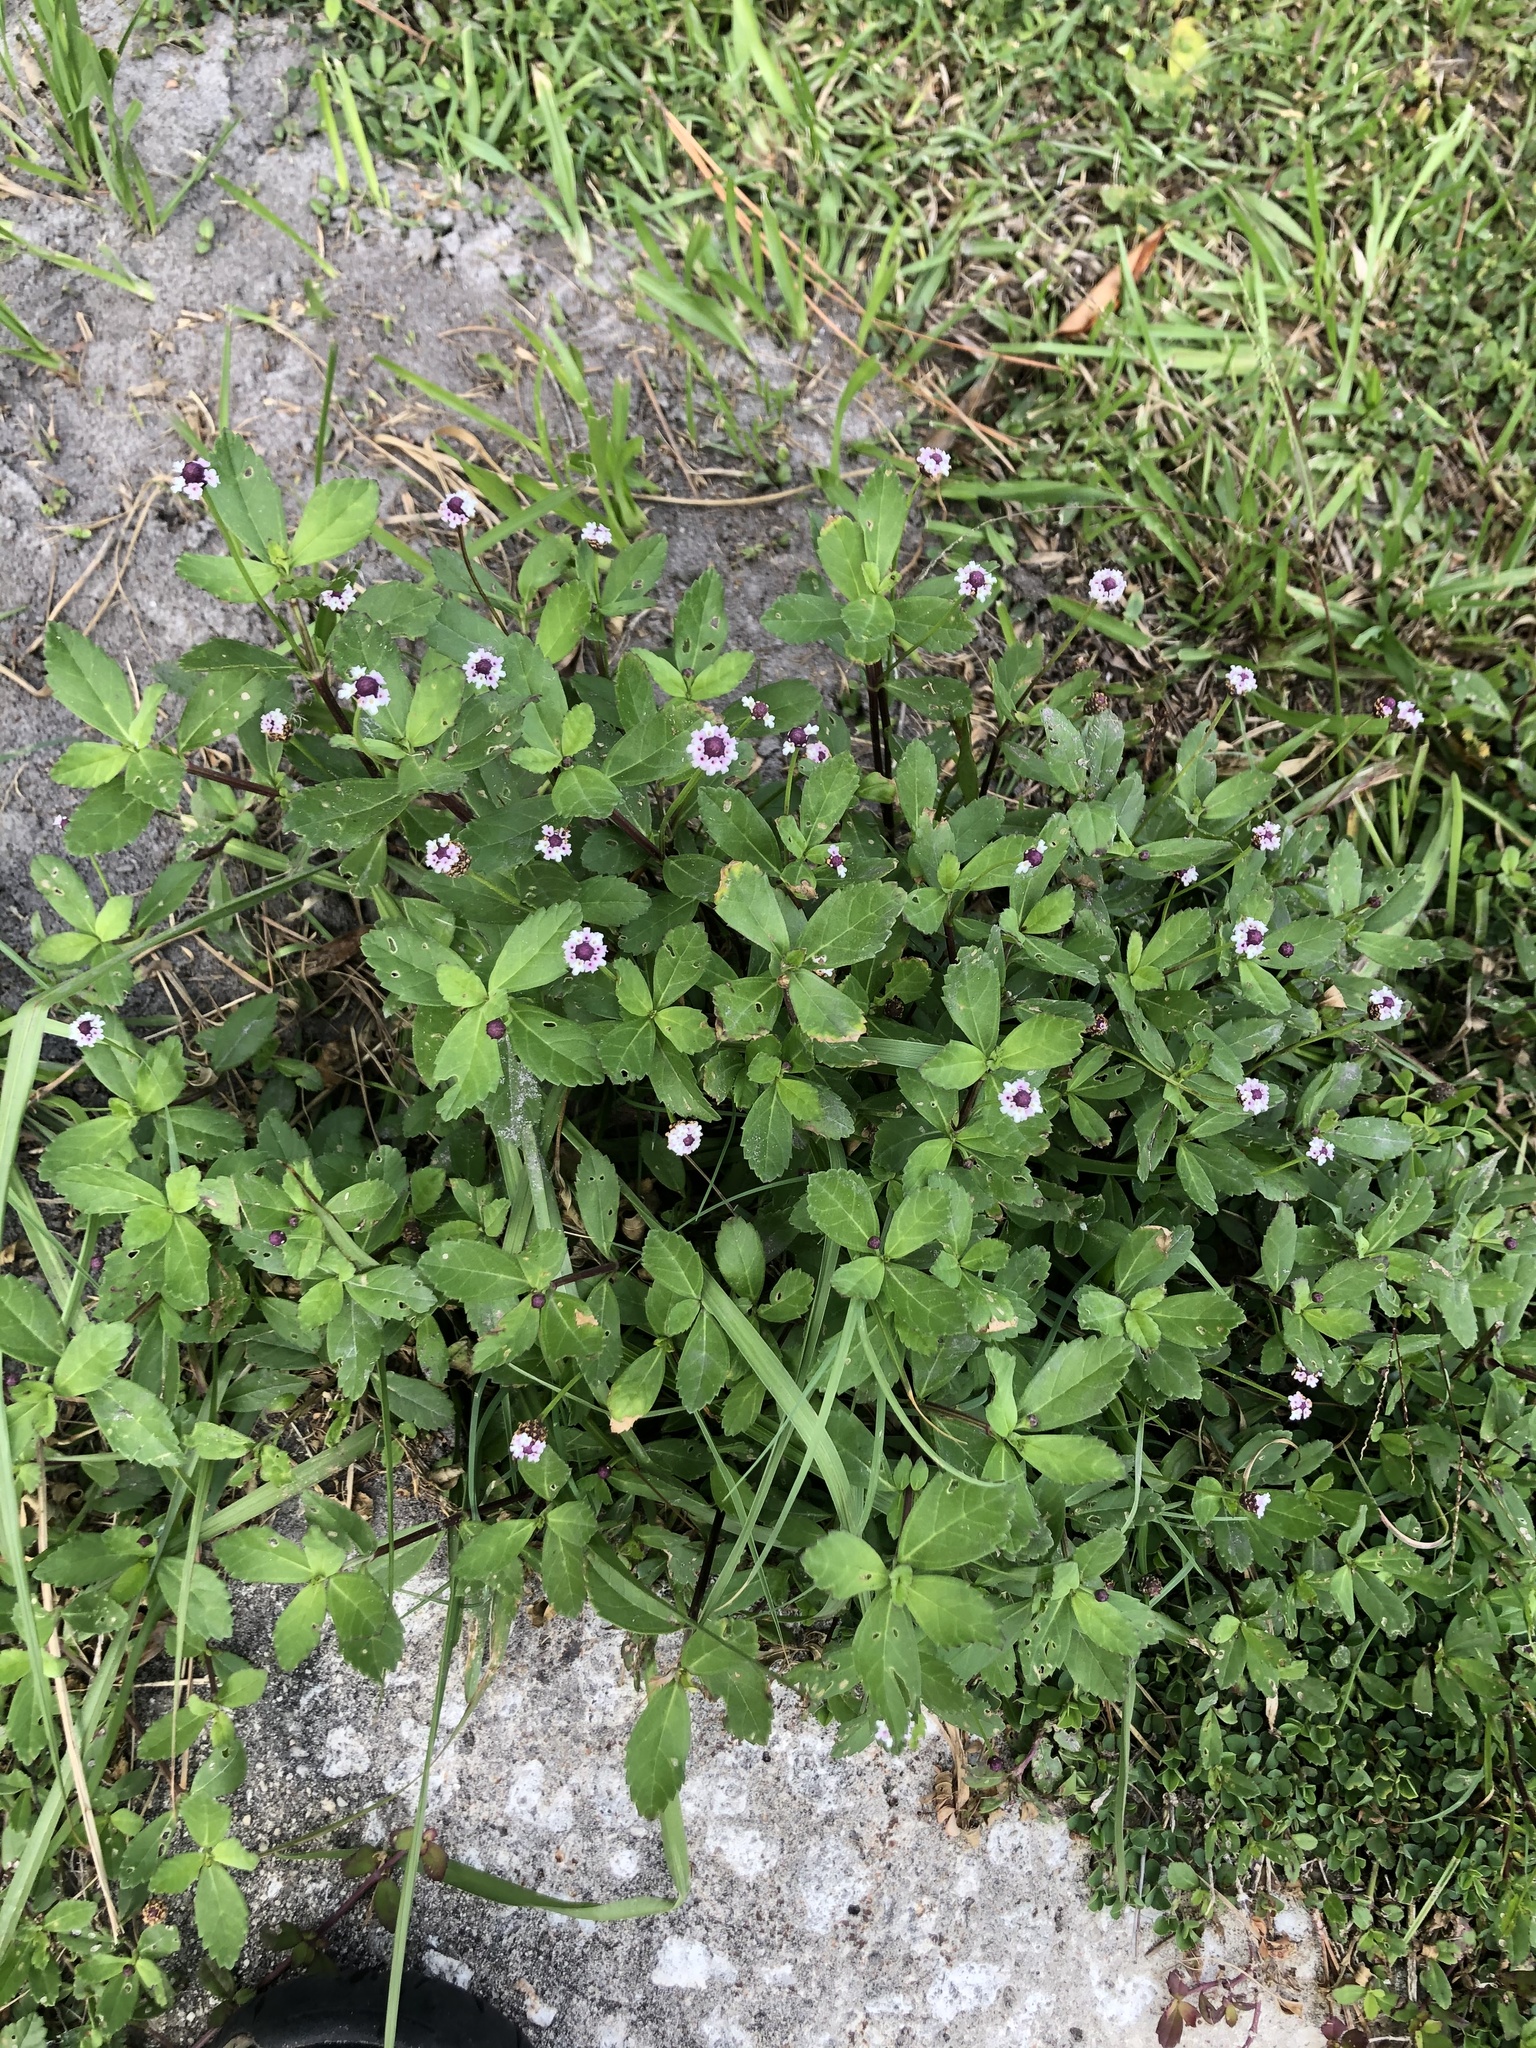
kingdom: Plantae
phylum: Tracheophyta
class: Magnoliopsida
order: Lamiales
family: Verbenaceae
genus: Phyla
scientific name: Phyla nodiflora
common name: Frogfruit
